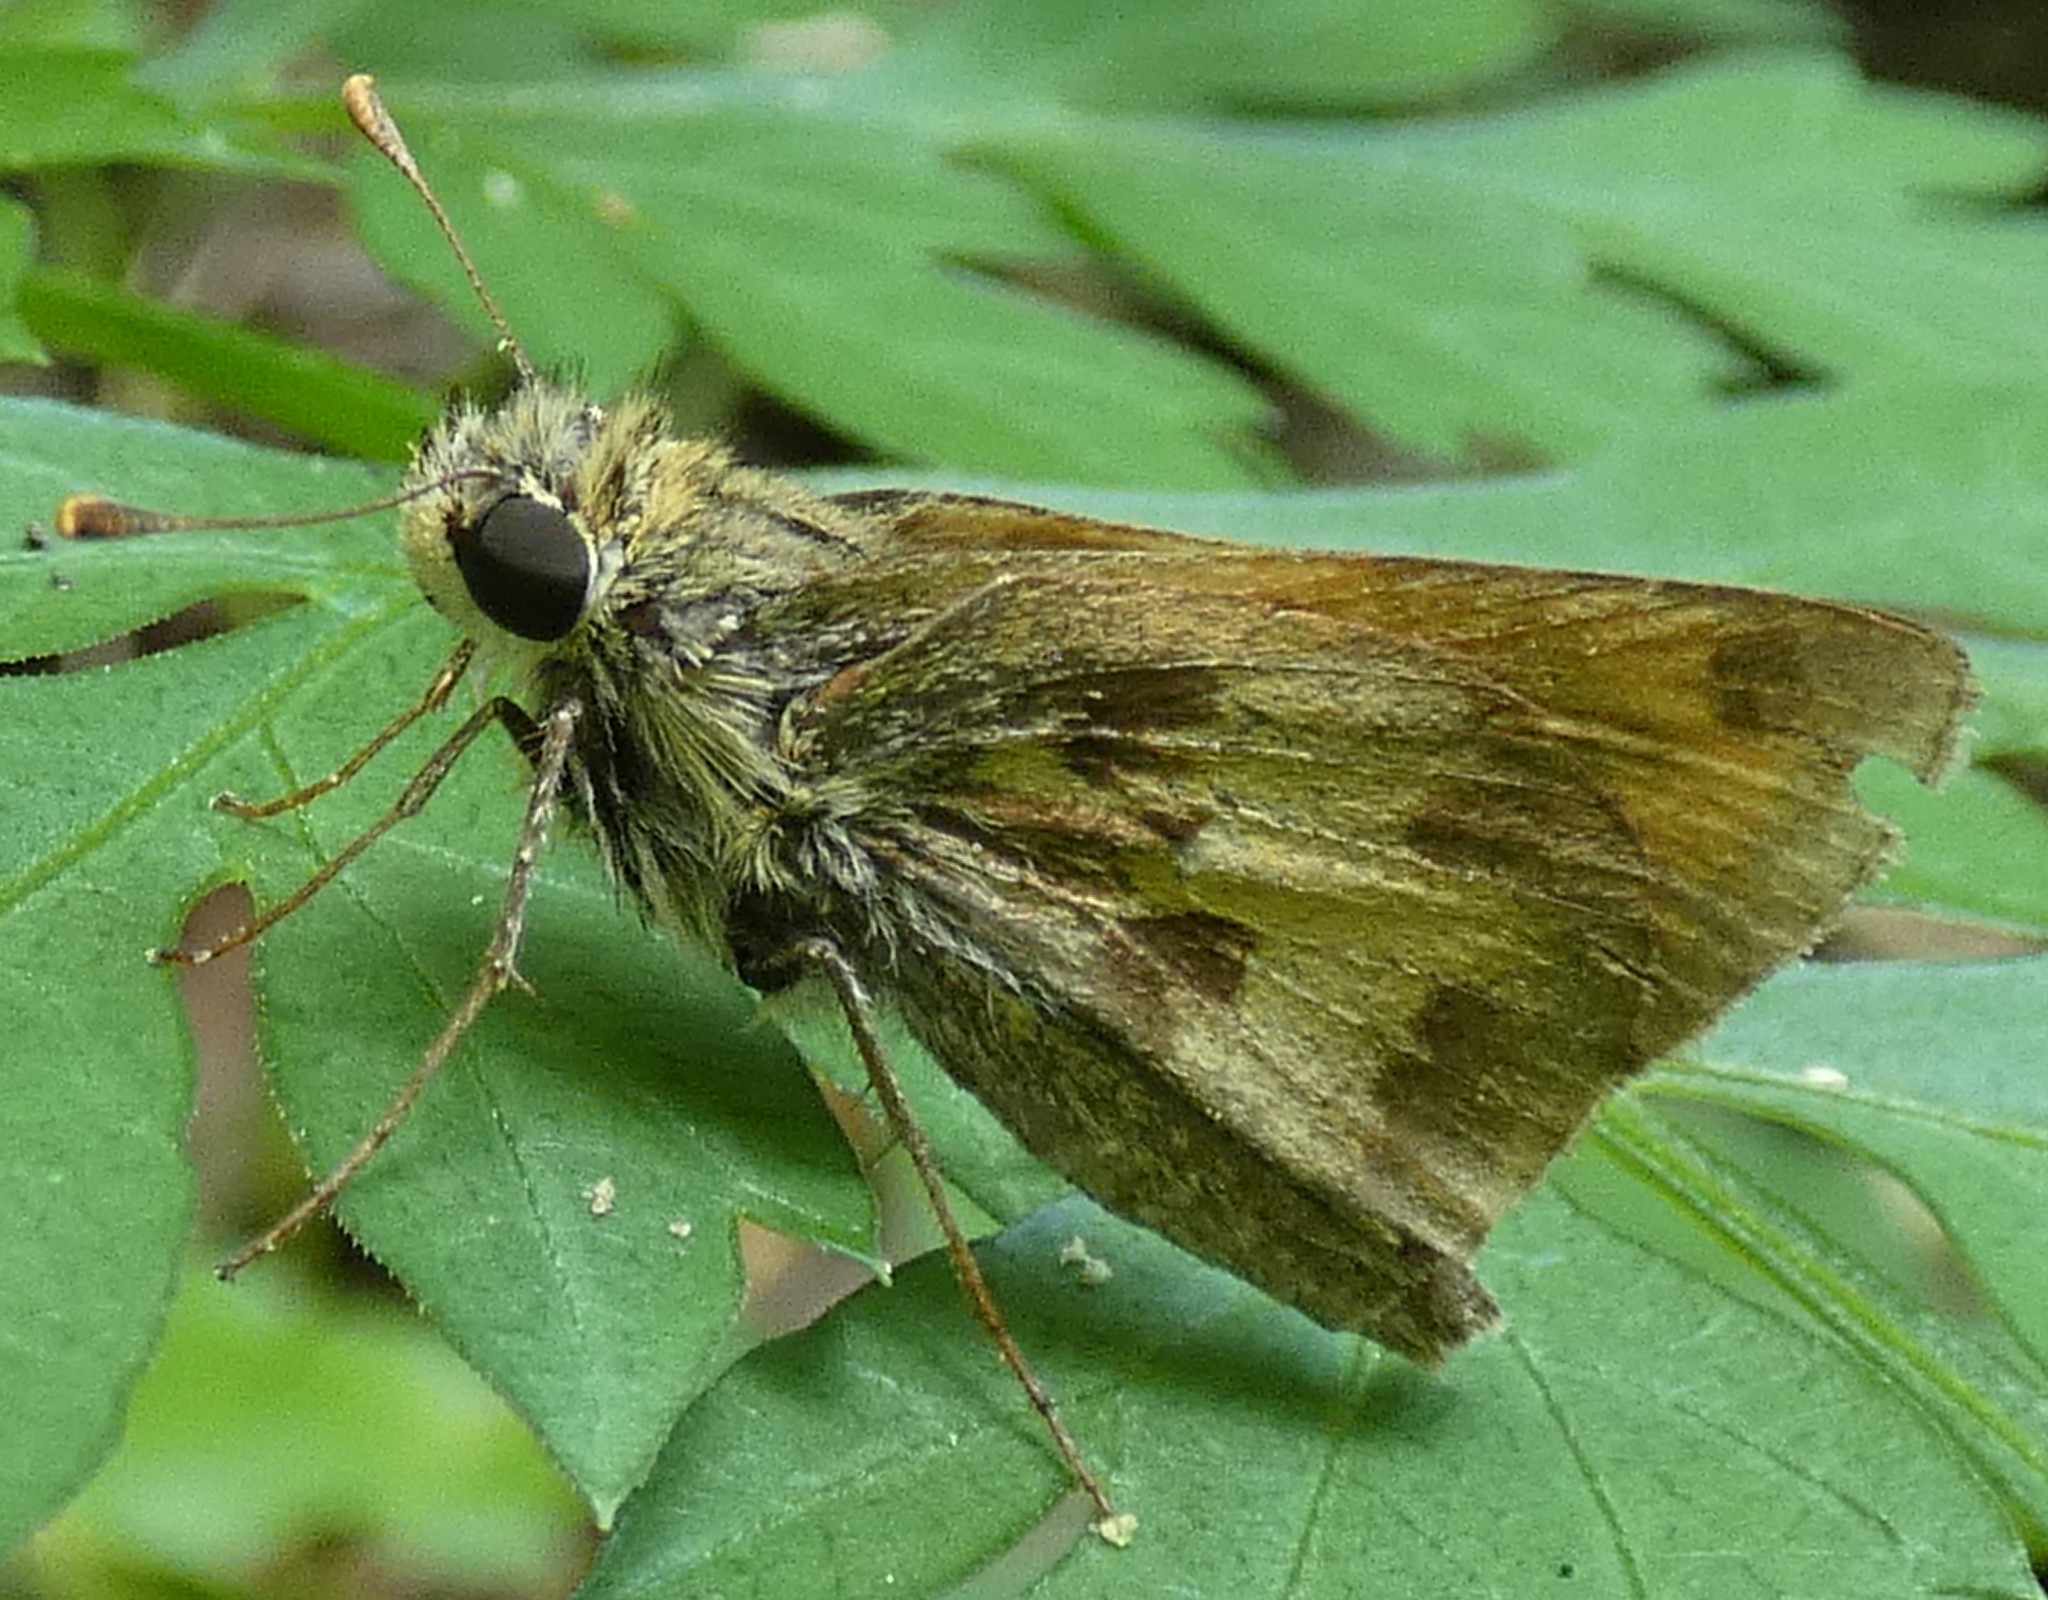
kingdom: Animalia
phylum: Arthropoda
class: Insecta
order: Lepidoptera
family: Hesperiidae
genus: Polites
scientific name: Polites vibex
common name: Whirlabout
